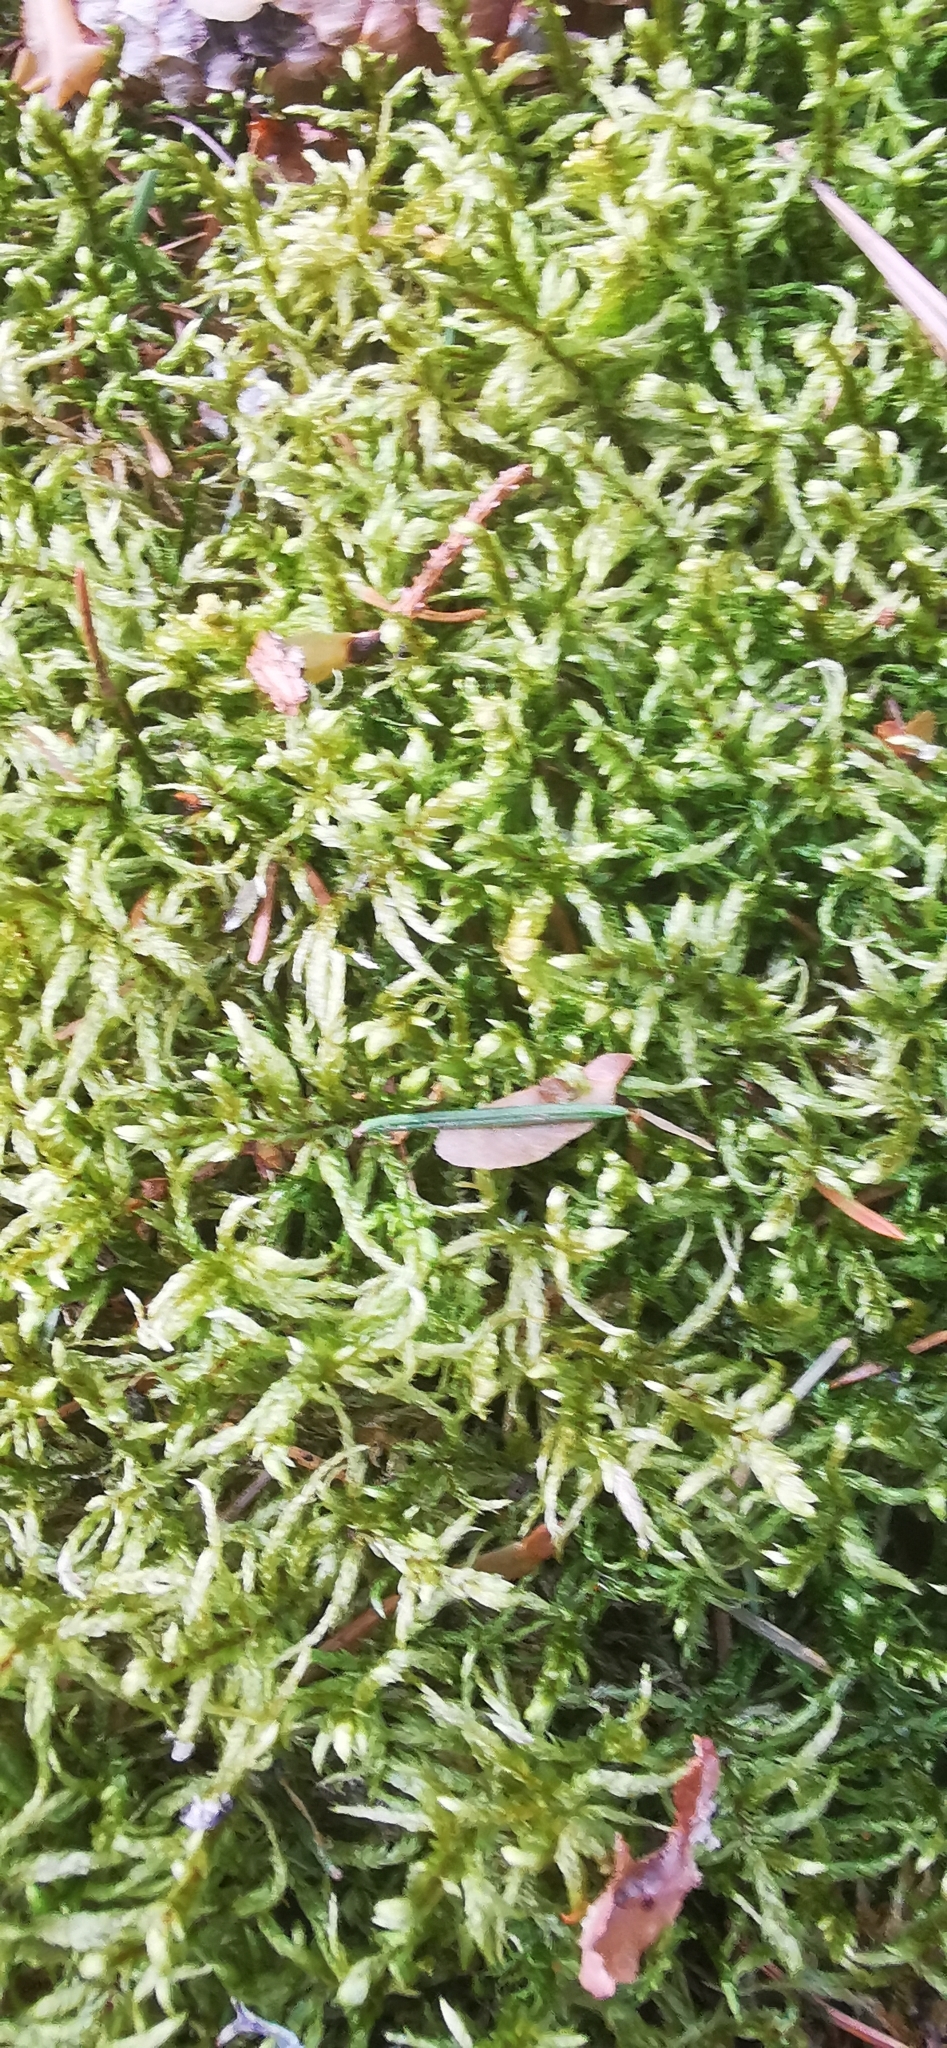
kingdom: Plantae
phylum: Bryophyta
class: Bryopsida
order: Hypnales
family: Hylocomiaceae
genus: Pleurozium
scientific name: Pleurozium schreberi
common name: Red-stemmed feather moss
